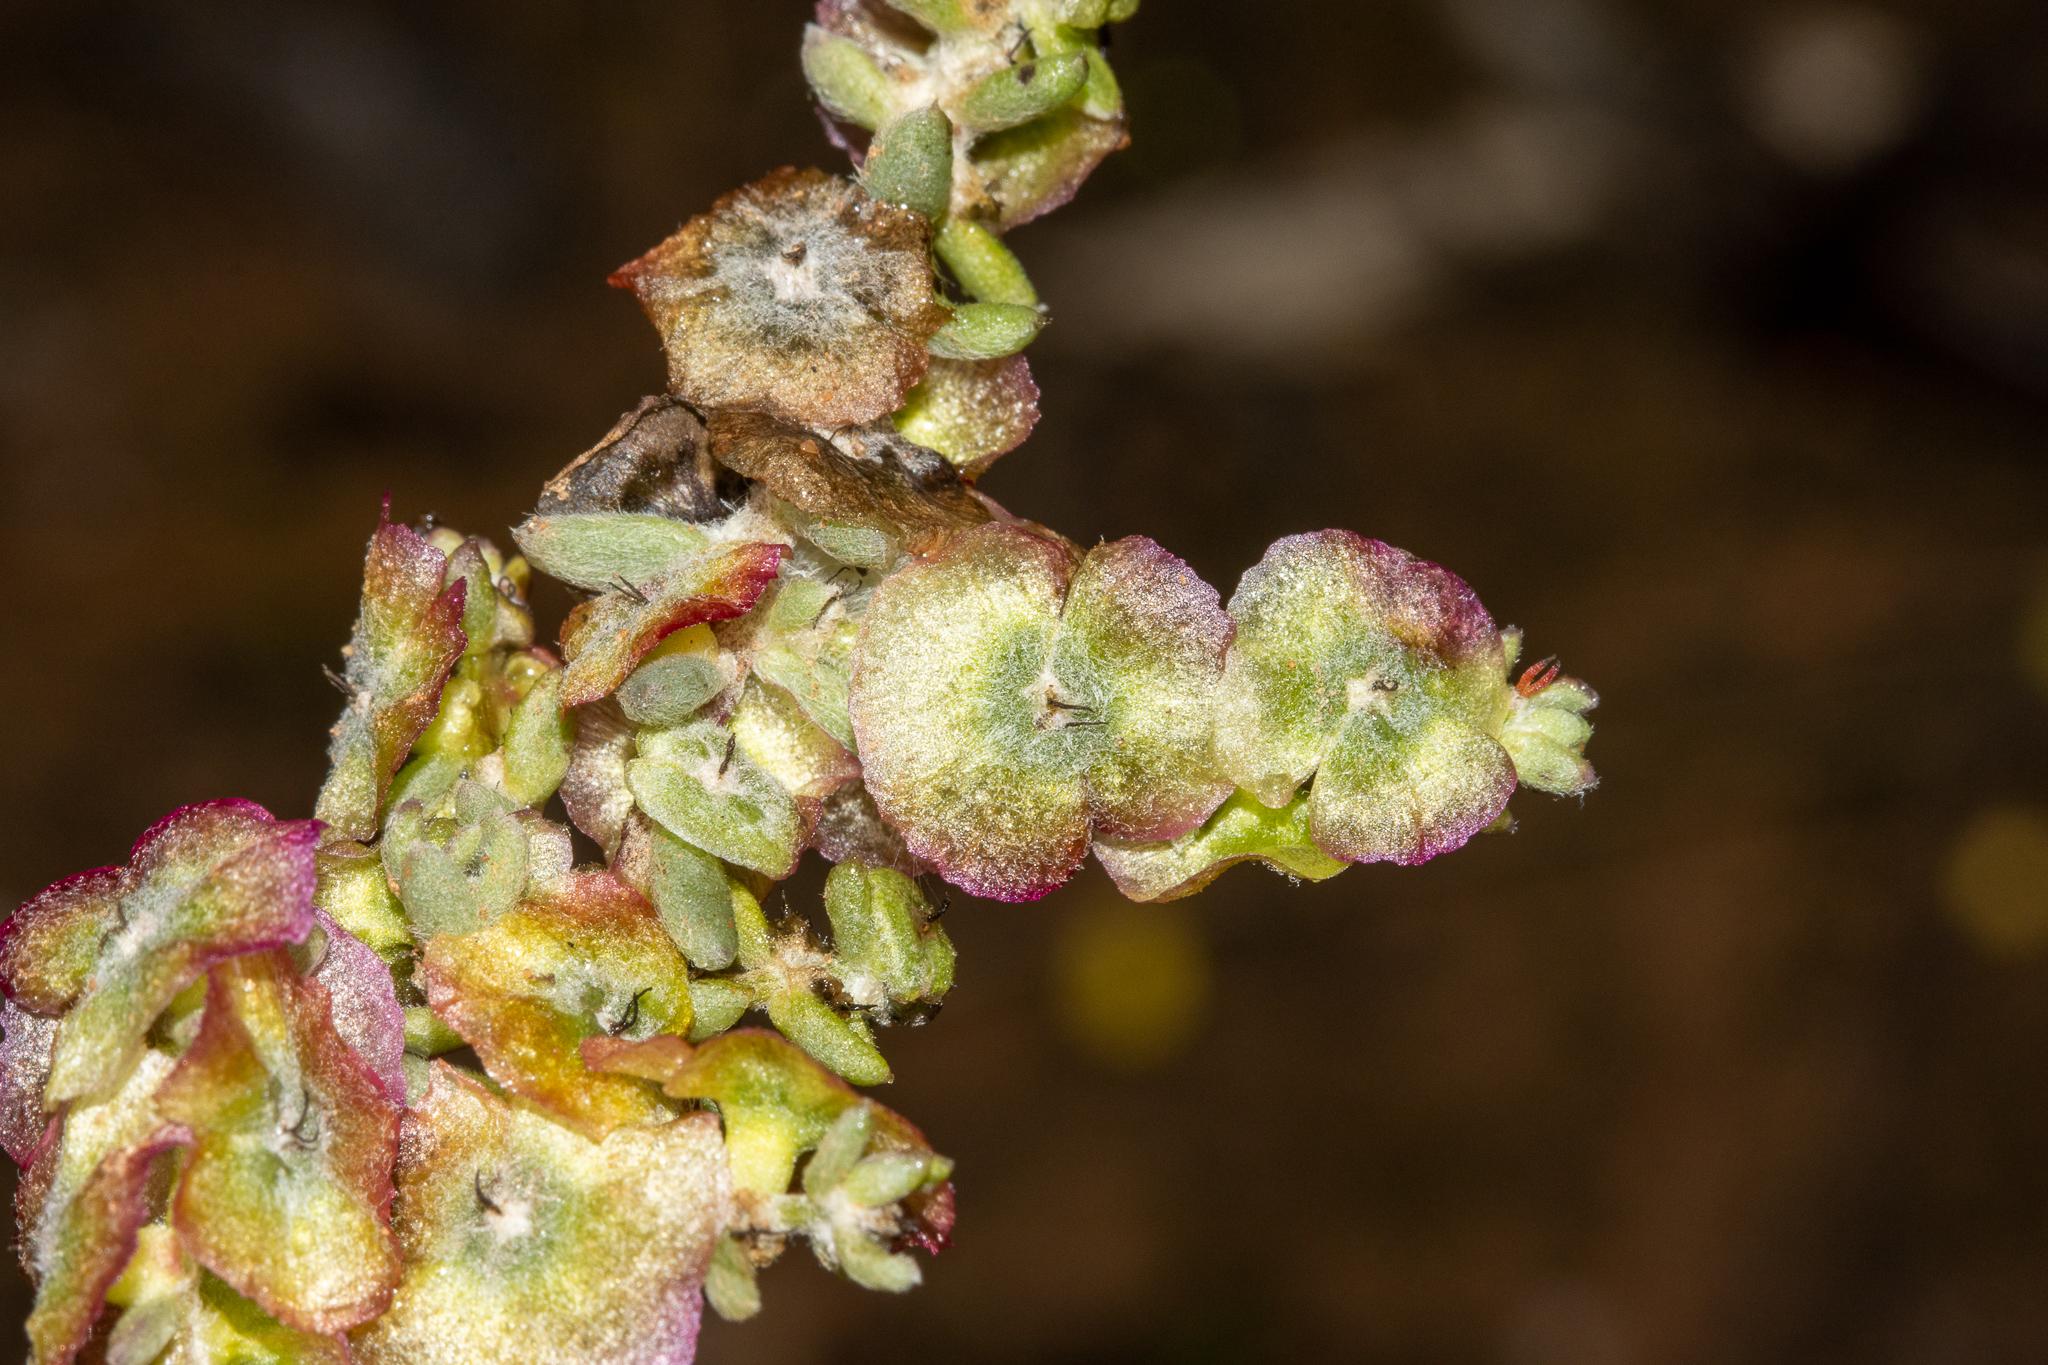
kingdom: Plantae
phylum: Tracheophyta
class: Magnoliopsida
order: Caryophyllales
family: Amaranthaceae
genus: Maireana
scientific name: Maireana trichoptera
